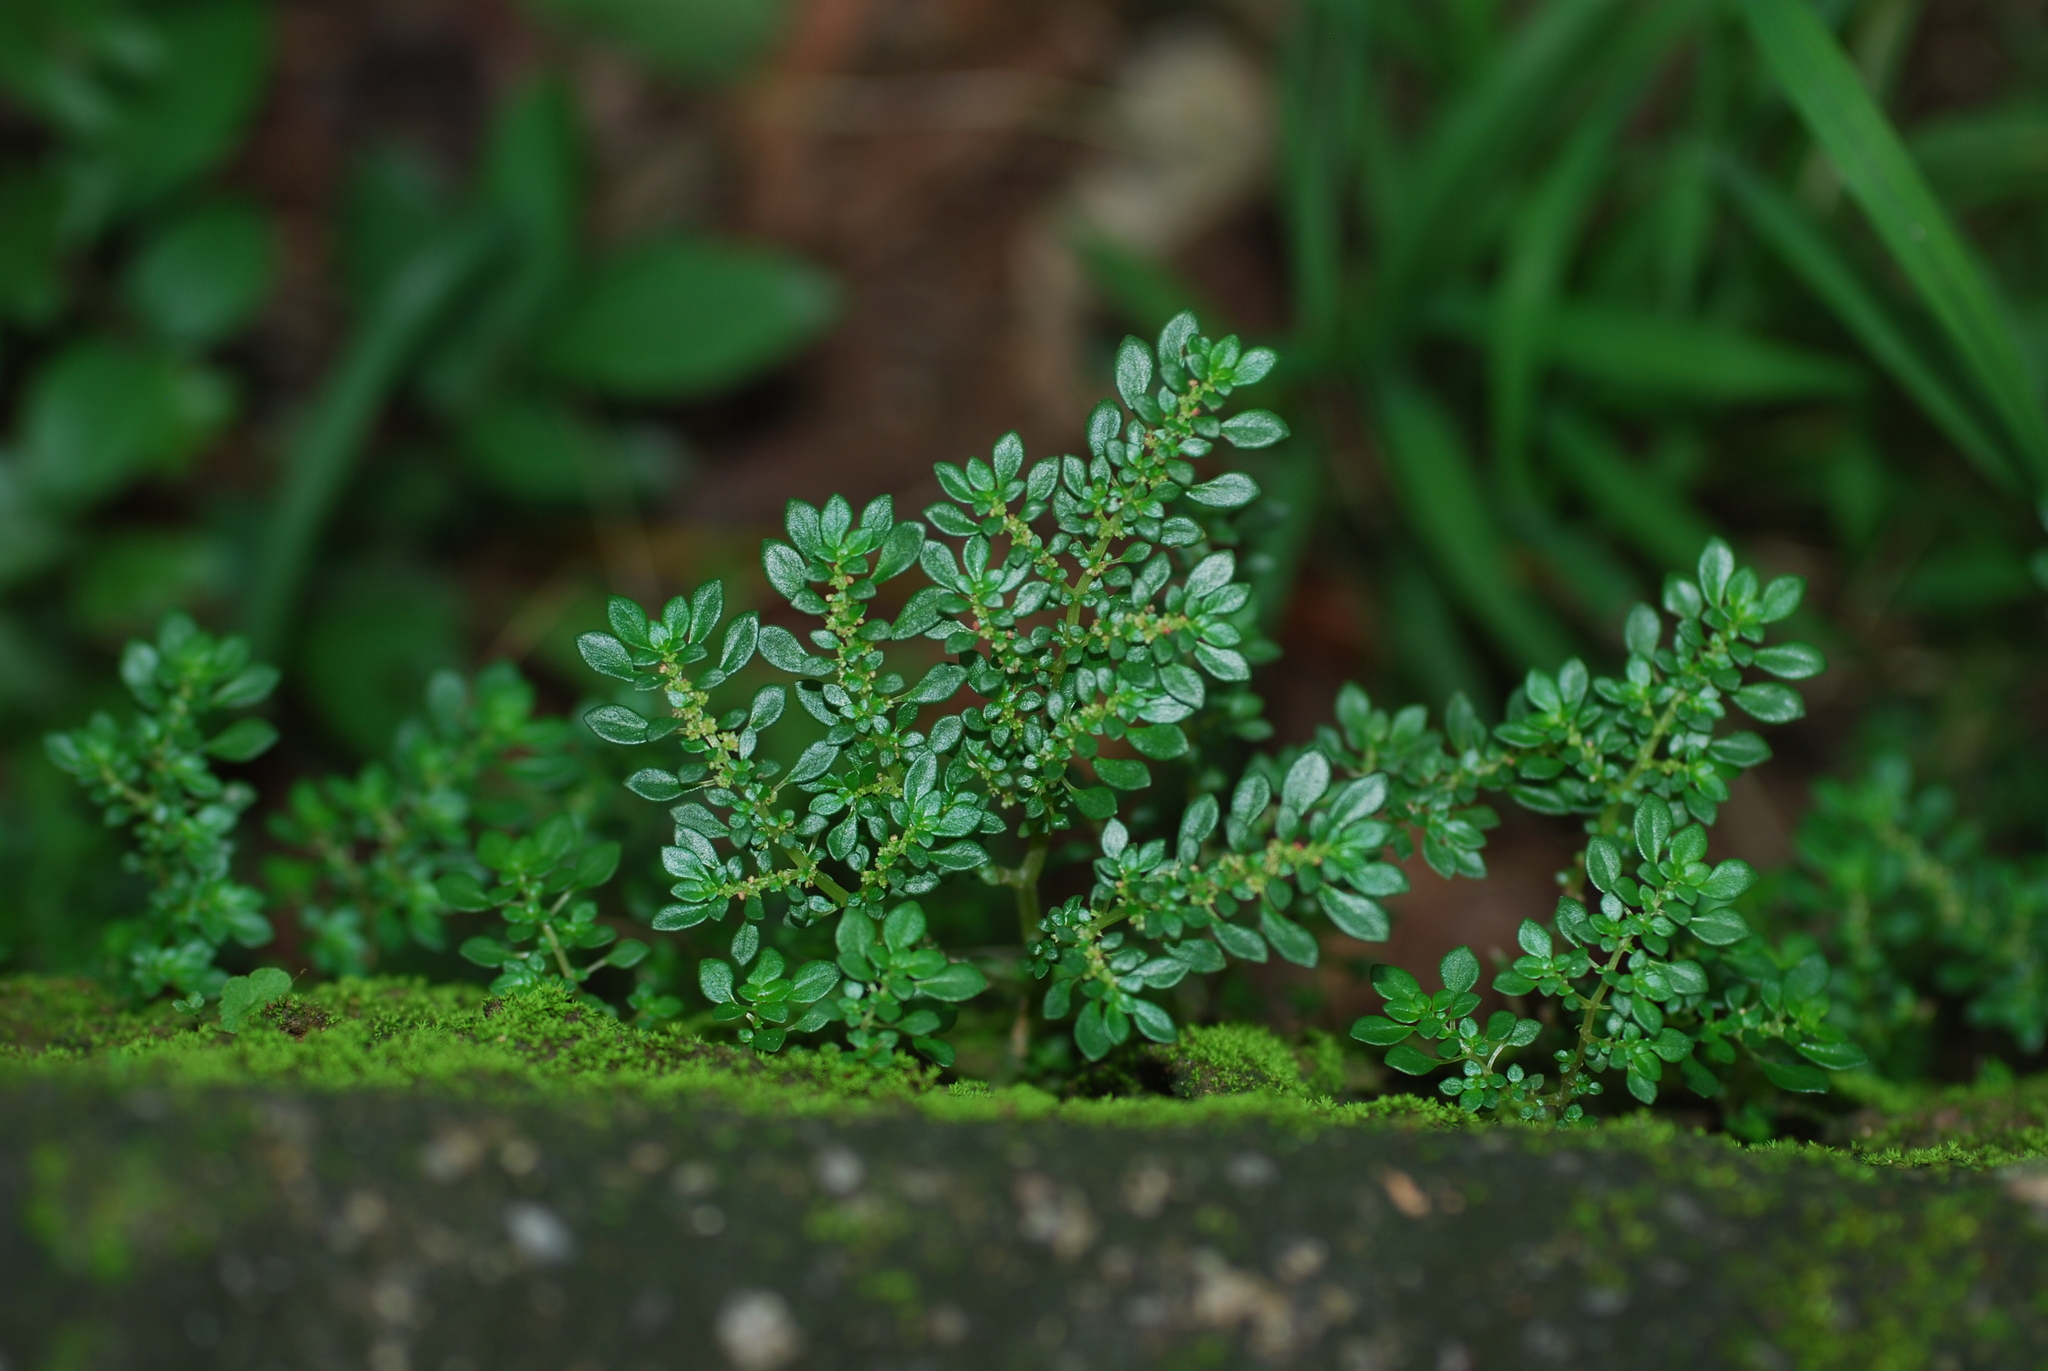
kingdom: Plantae
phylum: Tracheophyta
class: Magnoliopsida
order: Rosales
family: Urticaceae
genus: Pilea
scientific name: Pilea microphylla
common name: Artillery-plant
